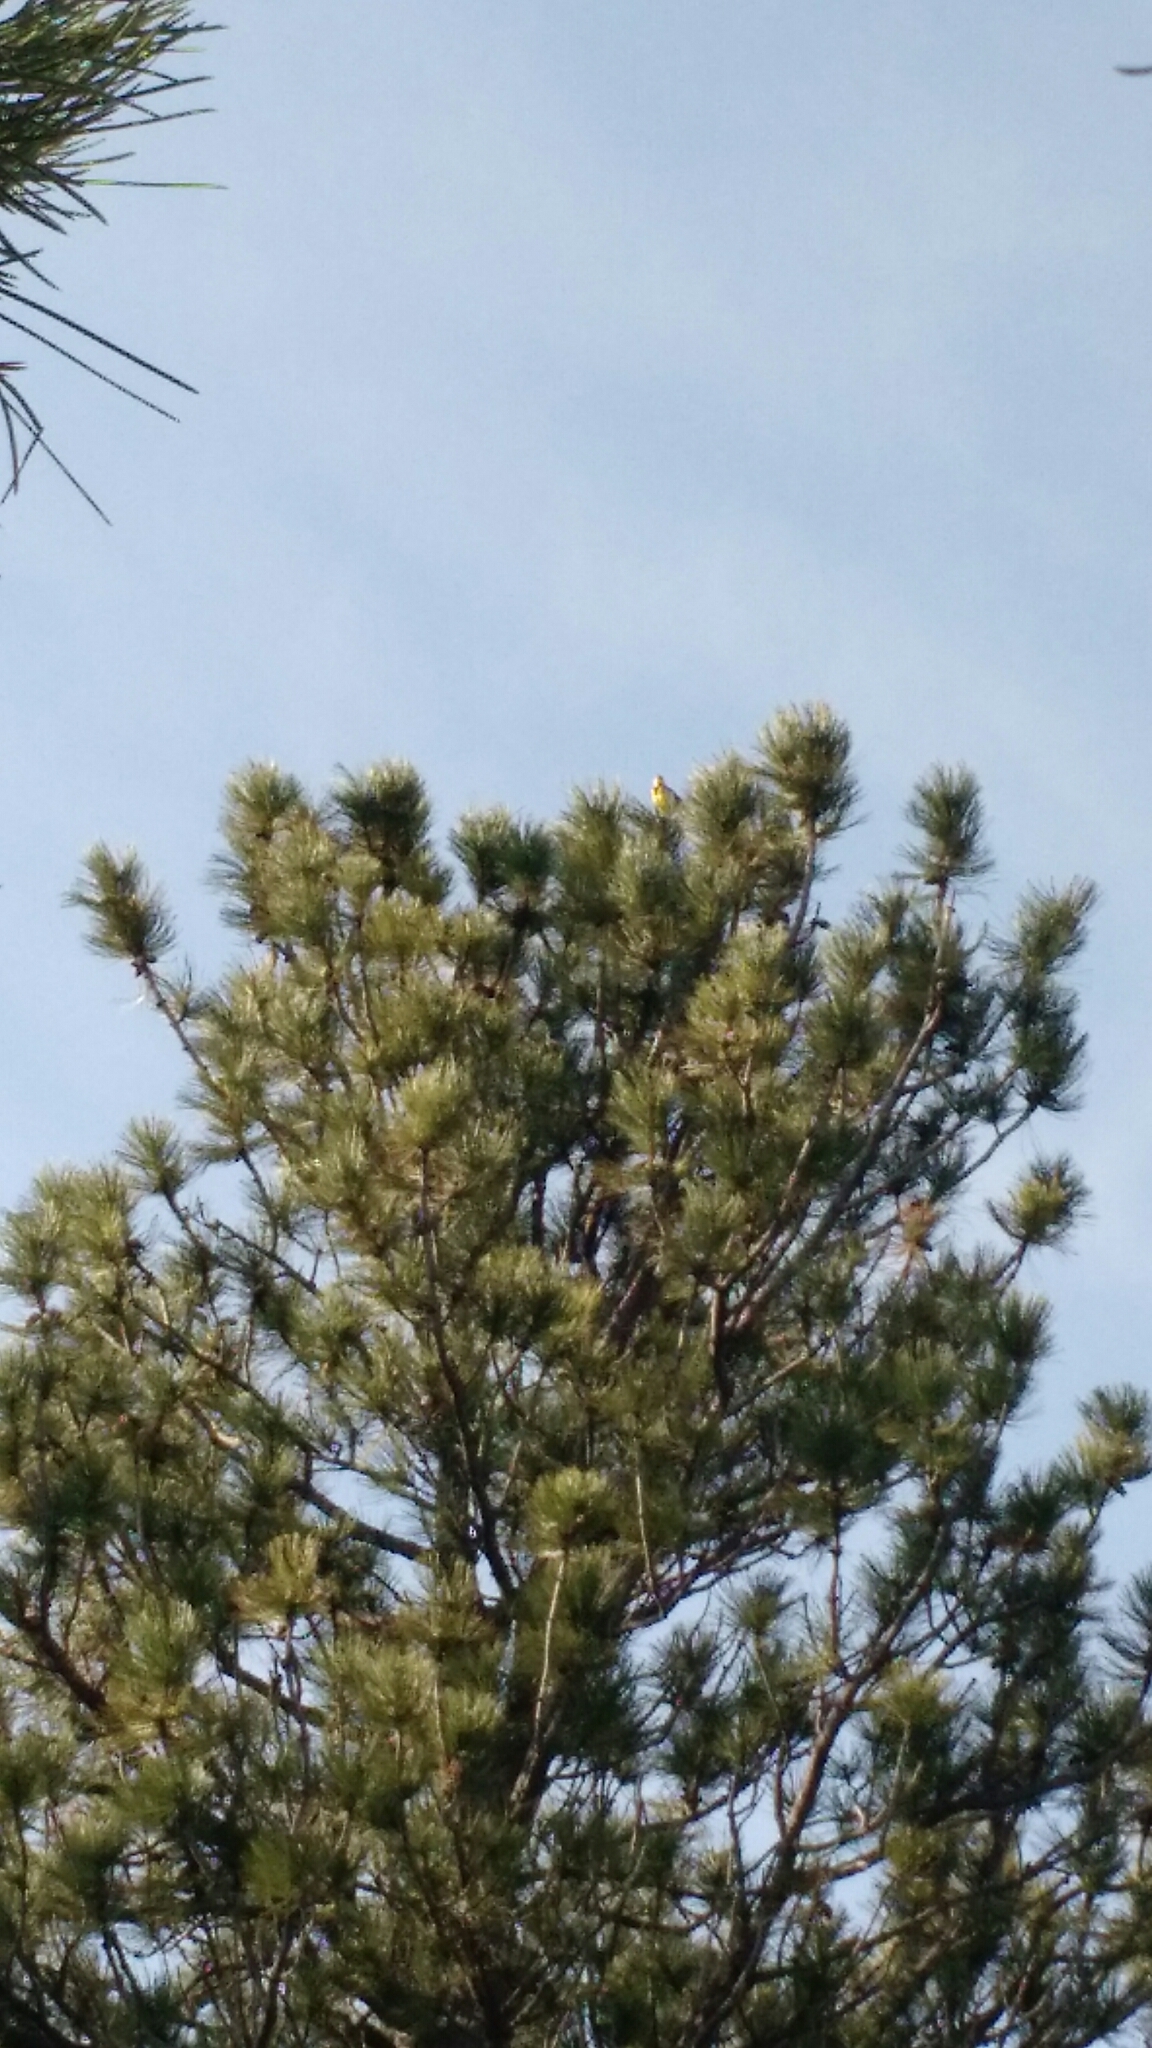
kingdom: Animalia
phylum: Chordata
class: Aves
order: Passeriformes
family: Icteridae
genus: Sturnella
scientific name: Sturnella neglecta
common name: Western meadowlark
